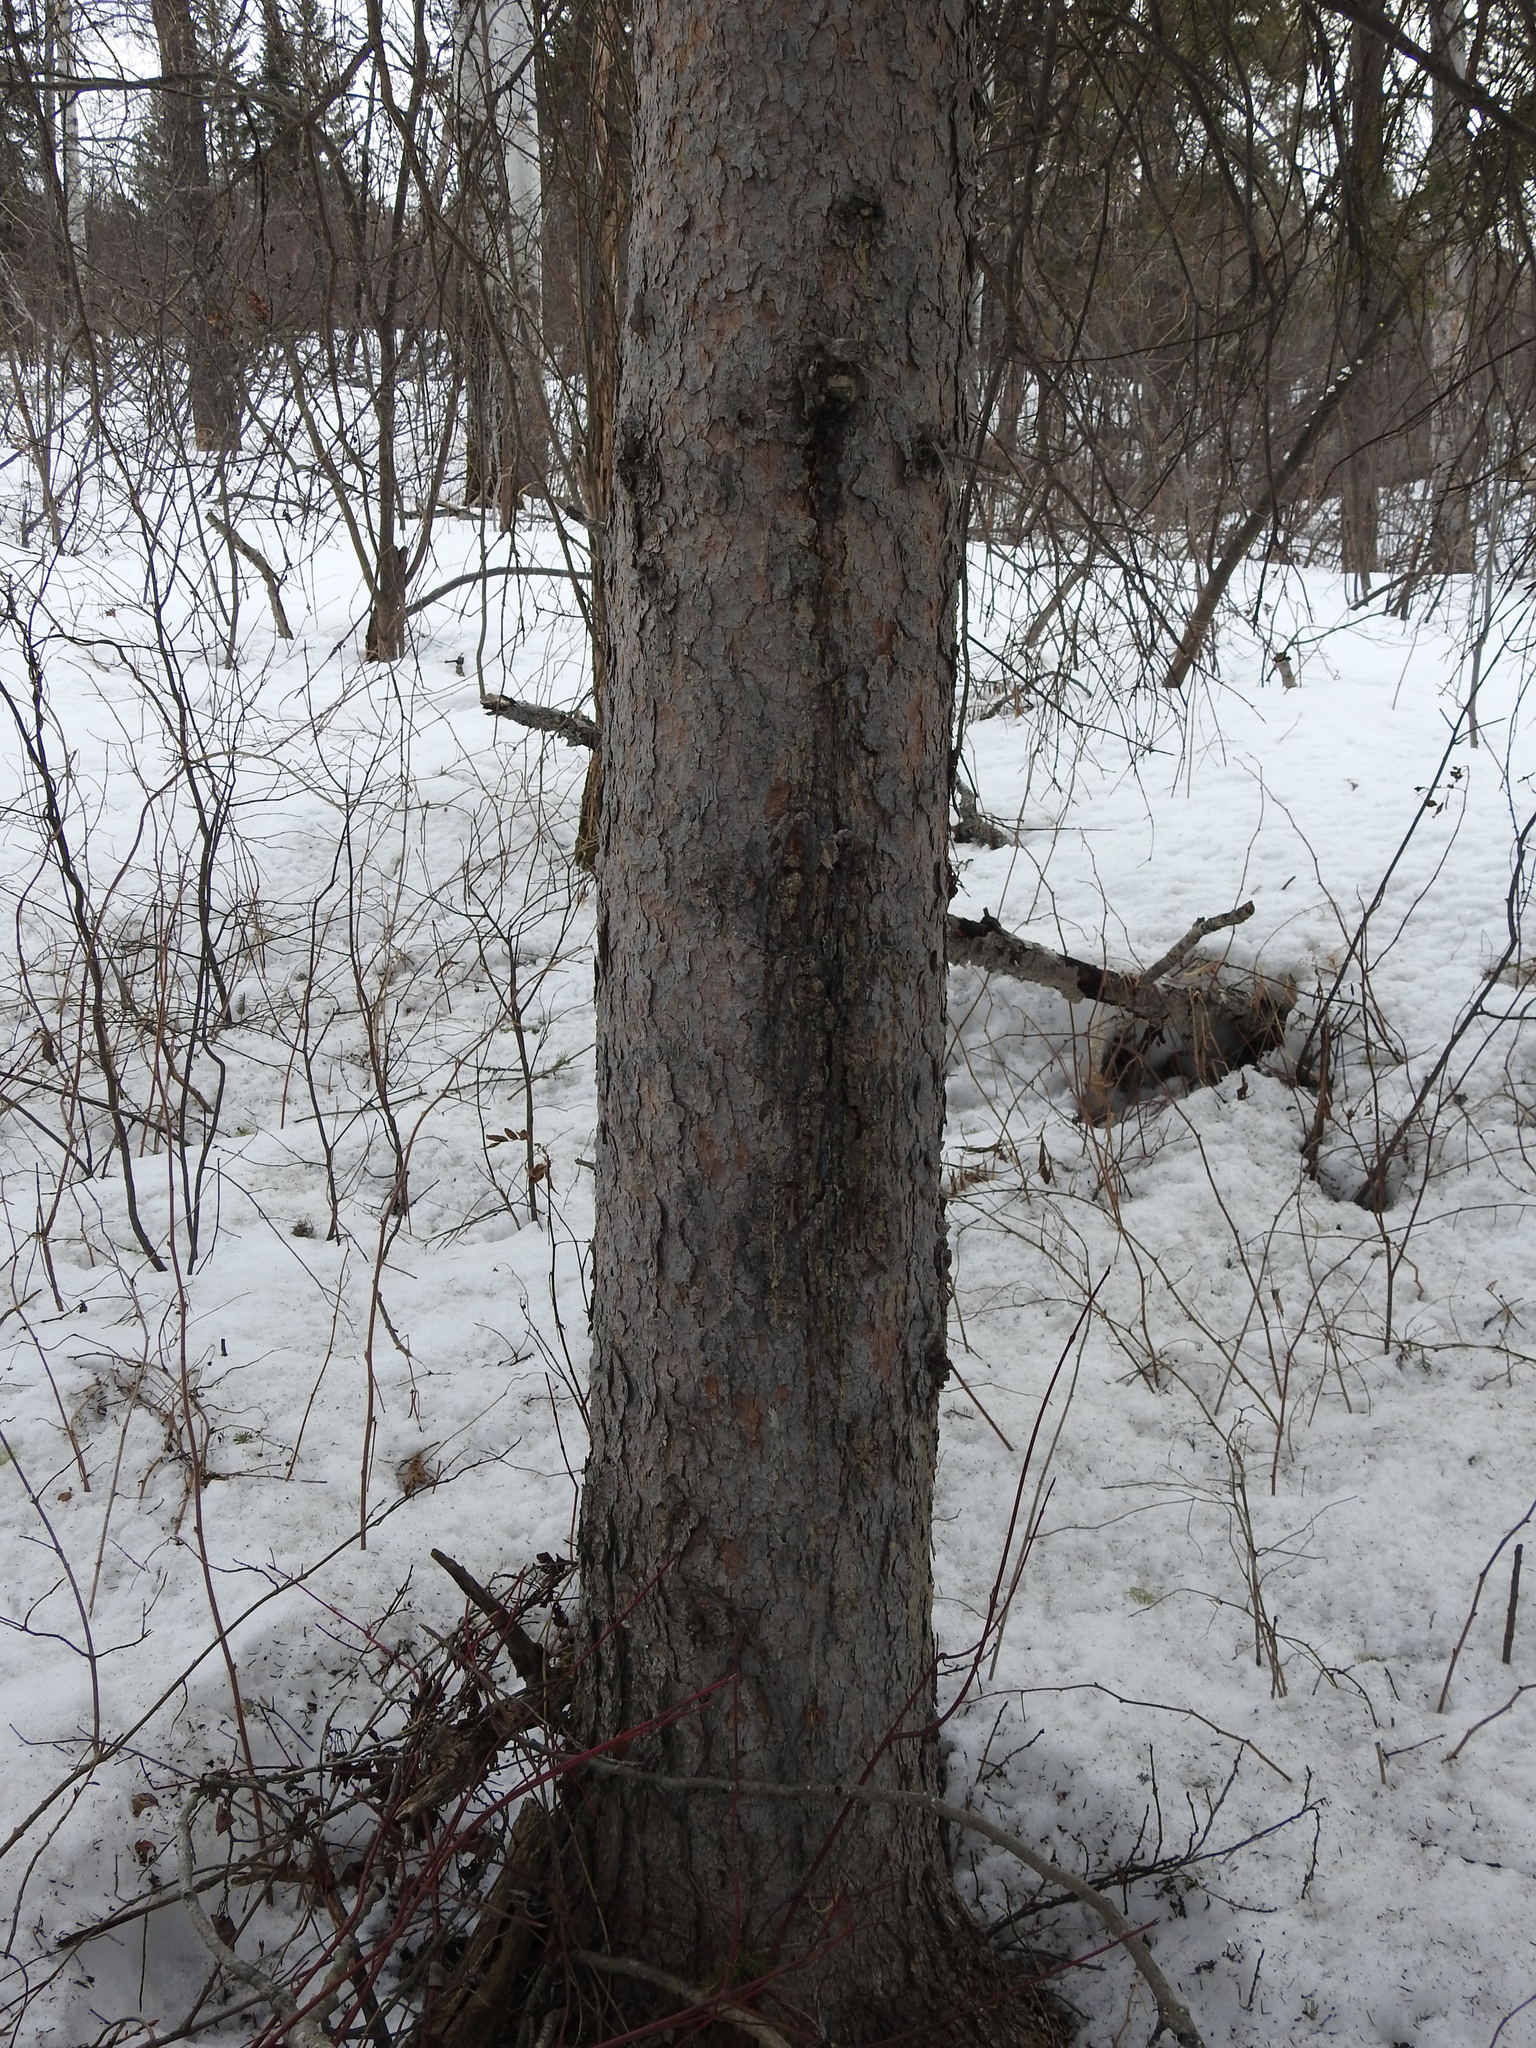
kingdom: Plantae
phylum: Tracheophyta
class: Pinopsida
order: Pinales
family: Pinaceae
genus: Picea
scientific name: Picea glauca
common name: White spruce
